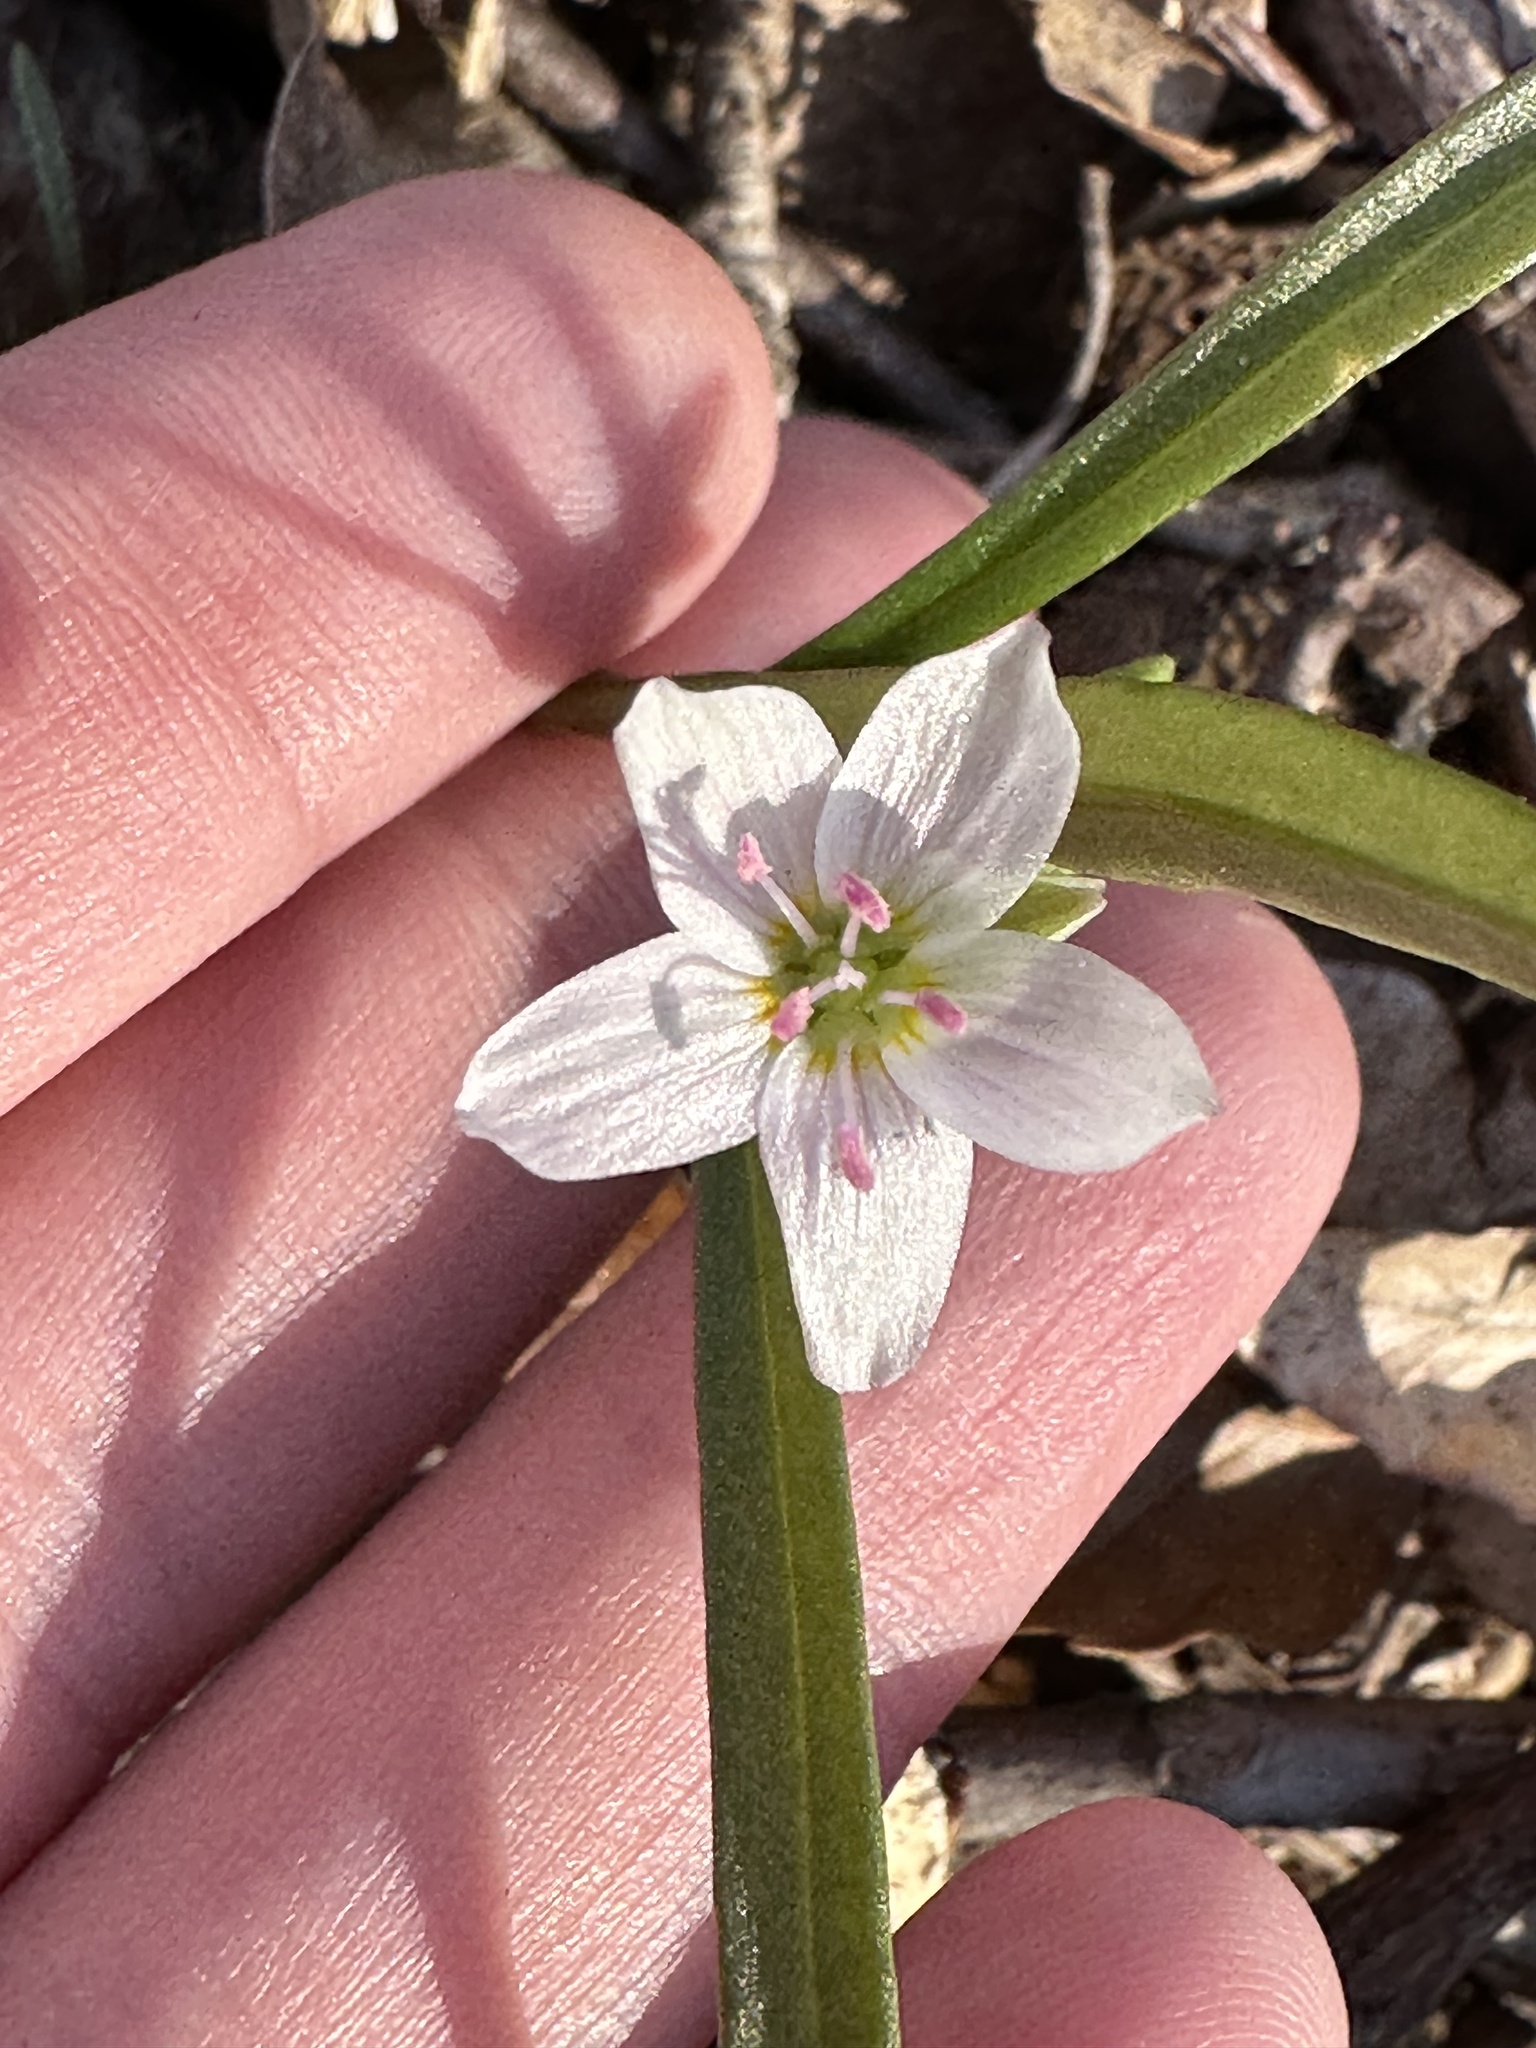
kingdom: Plantae
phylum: Tracheophyta
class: Magnoliopsida
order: Caryophyllales
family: Montiaceae
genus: Claytonia
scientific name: Claytonia virginica
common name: Virginia springbeauty
